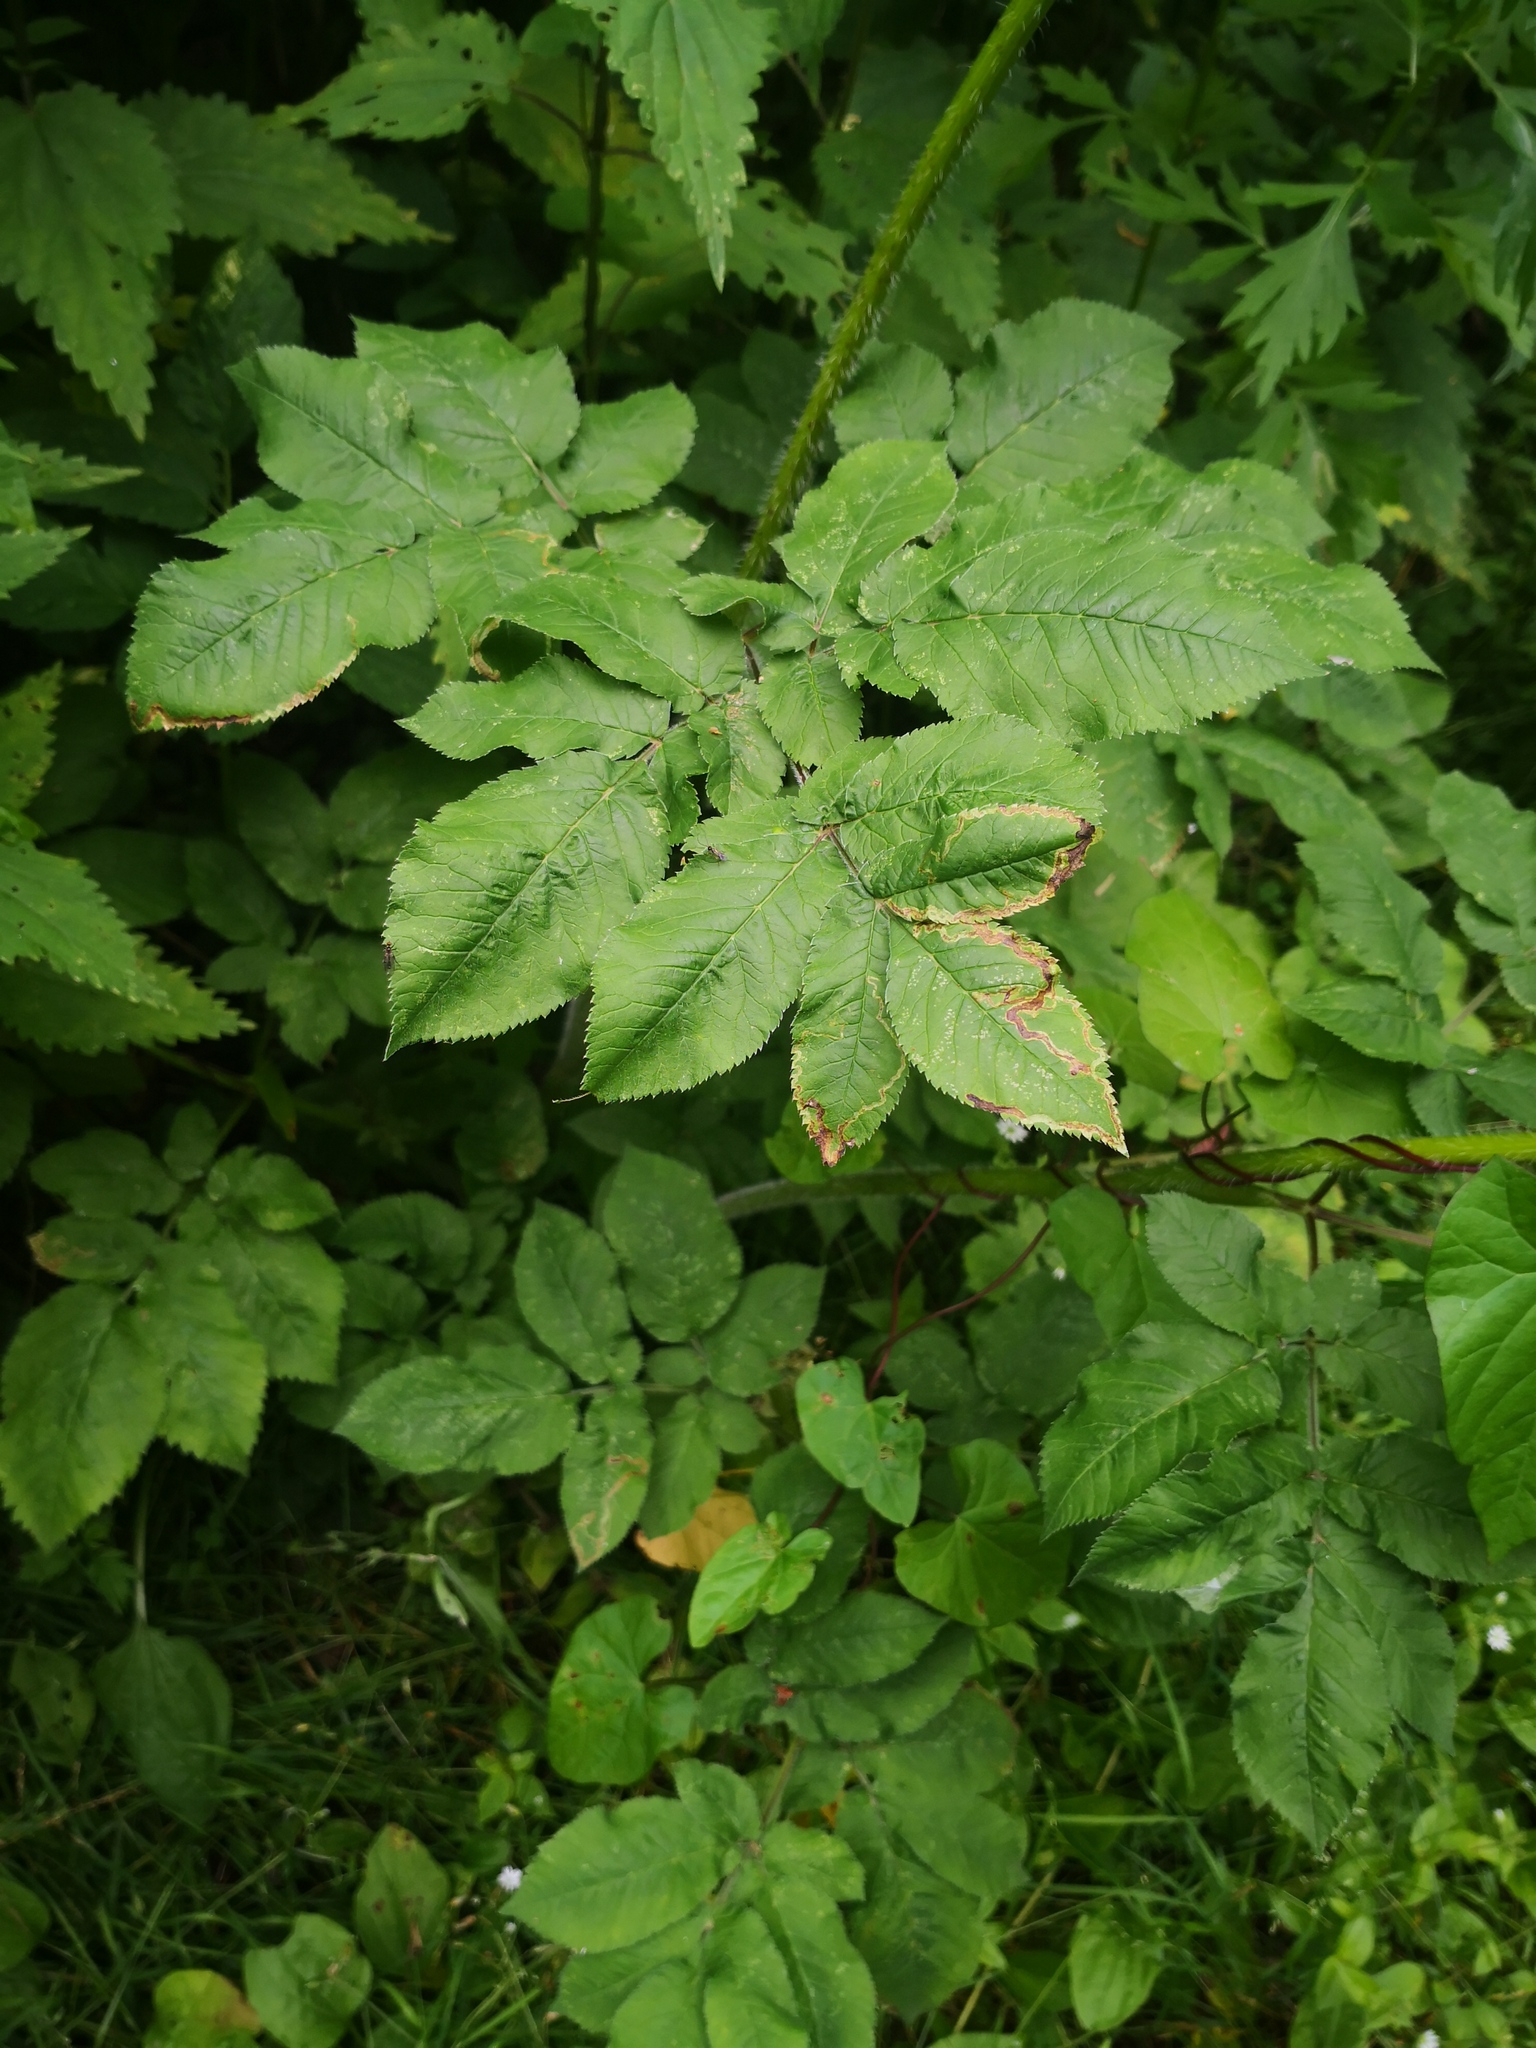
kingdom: Plantae
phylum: Tracheophyta
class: Magnoliopsida
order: Apiales
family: Apiaceae
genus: Chaerophyllum
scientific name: Chaerophyllum aromaticum
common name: Broadleaf chervil
